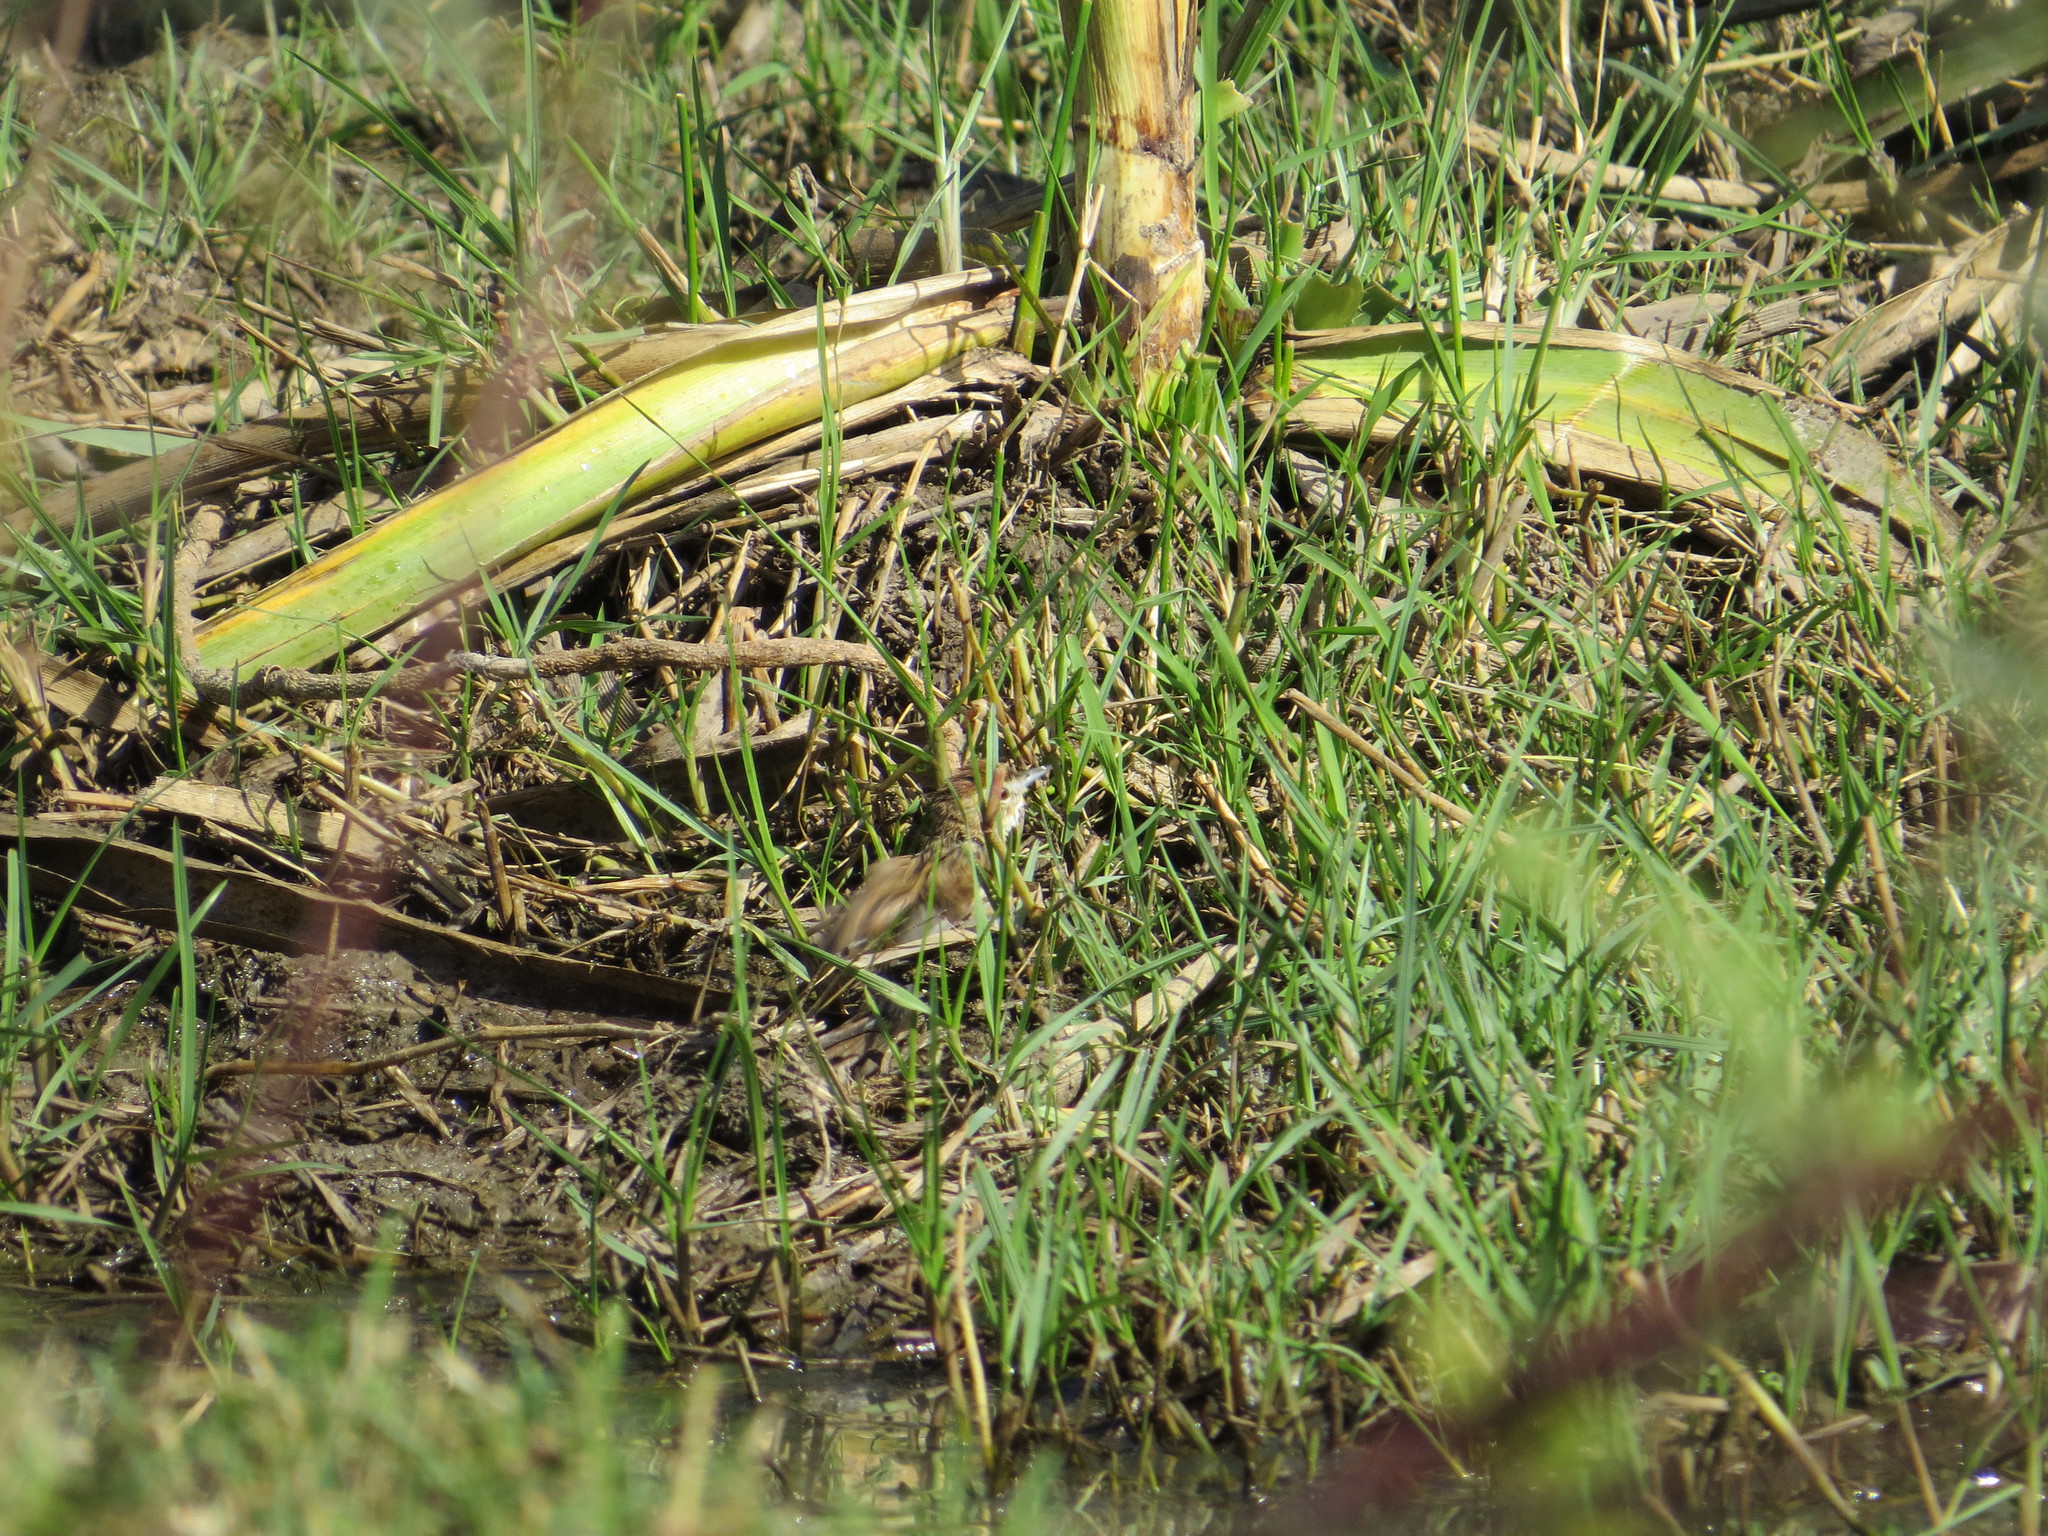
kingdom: Animalia
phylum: Chordata
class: Aves
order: Passeriformes
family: Furnariidae
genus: Schoeniophylax
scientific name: Schoeniophylax phryganophilus
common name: Chotoy spinetail
